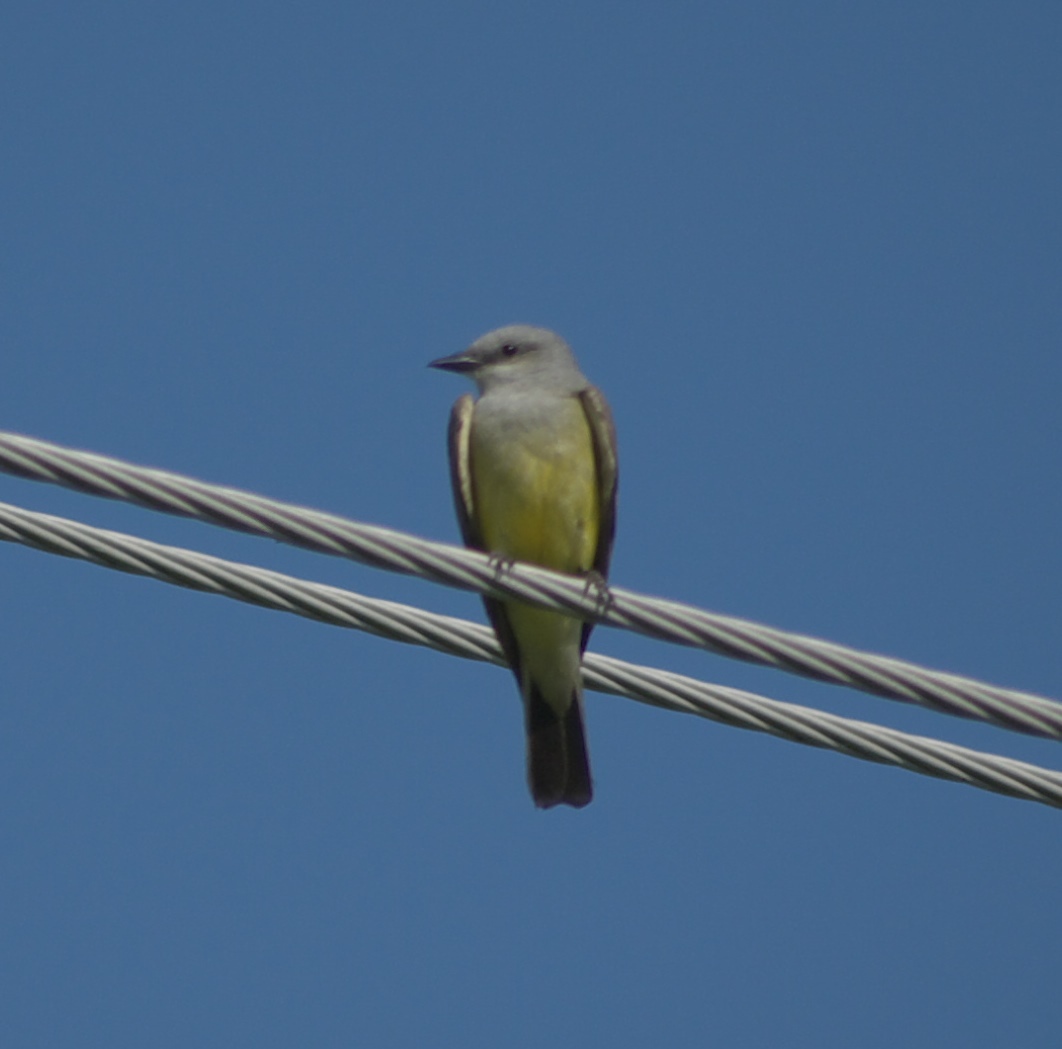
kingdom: Animalia
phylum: Chordata
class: Aves
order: Passeriformes
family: Tyrannidae
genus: Tyrannus
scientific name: Tyrannus verticalis
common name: Western kingbird
